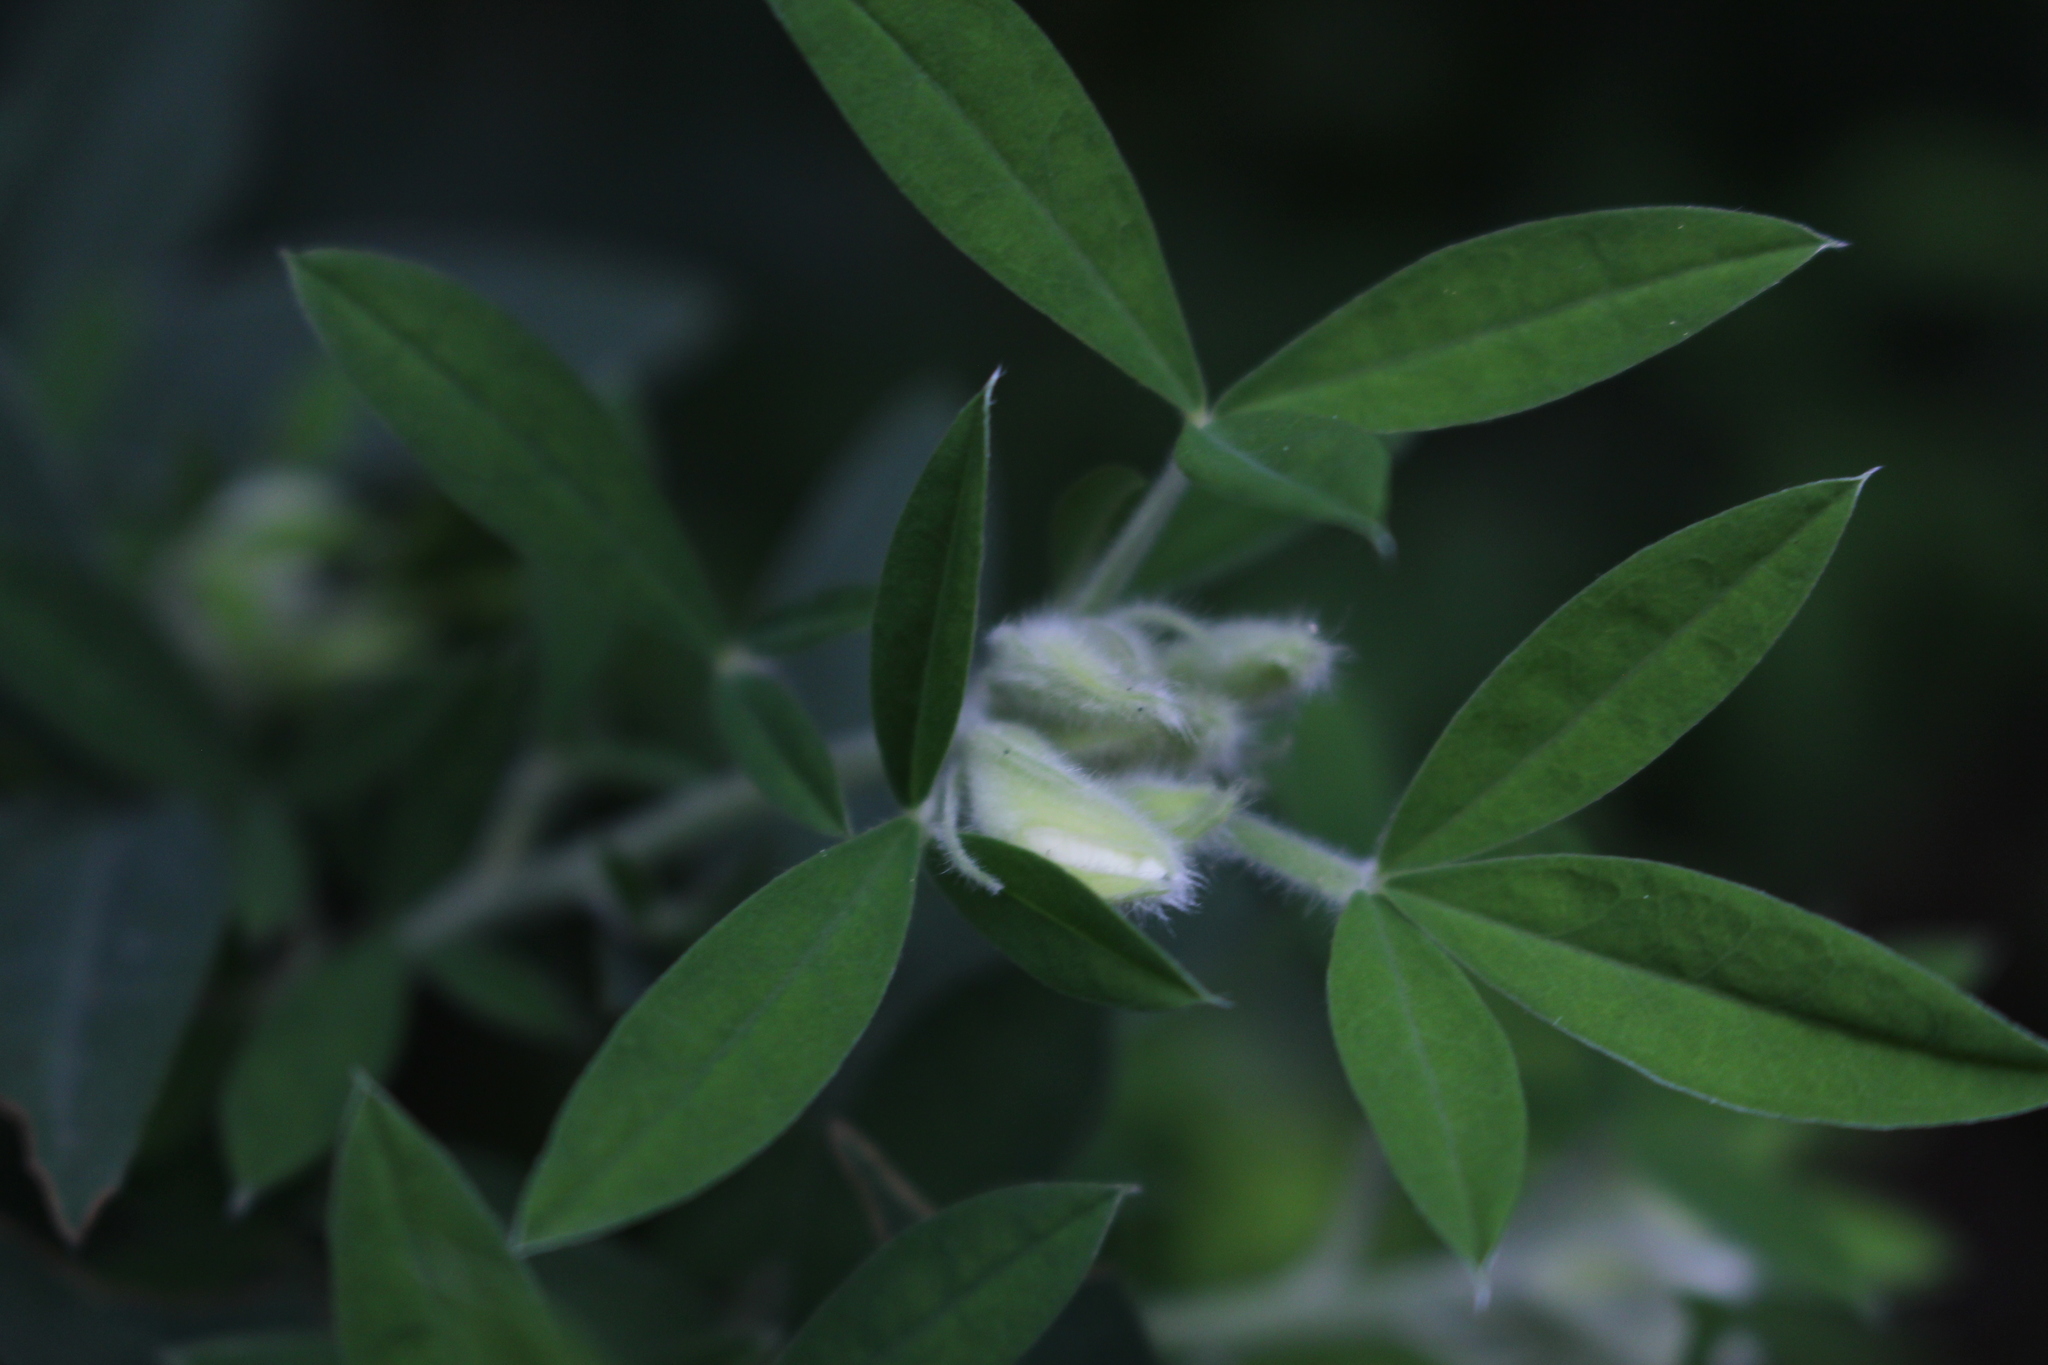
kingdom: Plantae
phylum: Tracheophyta
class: Magnoliopsida
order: Fabales
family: Fabaceae
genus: Chamaecytisus
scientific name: Chamaecytisus prolifer
